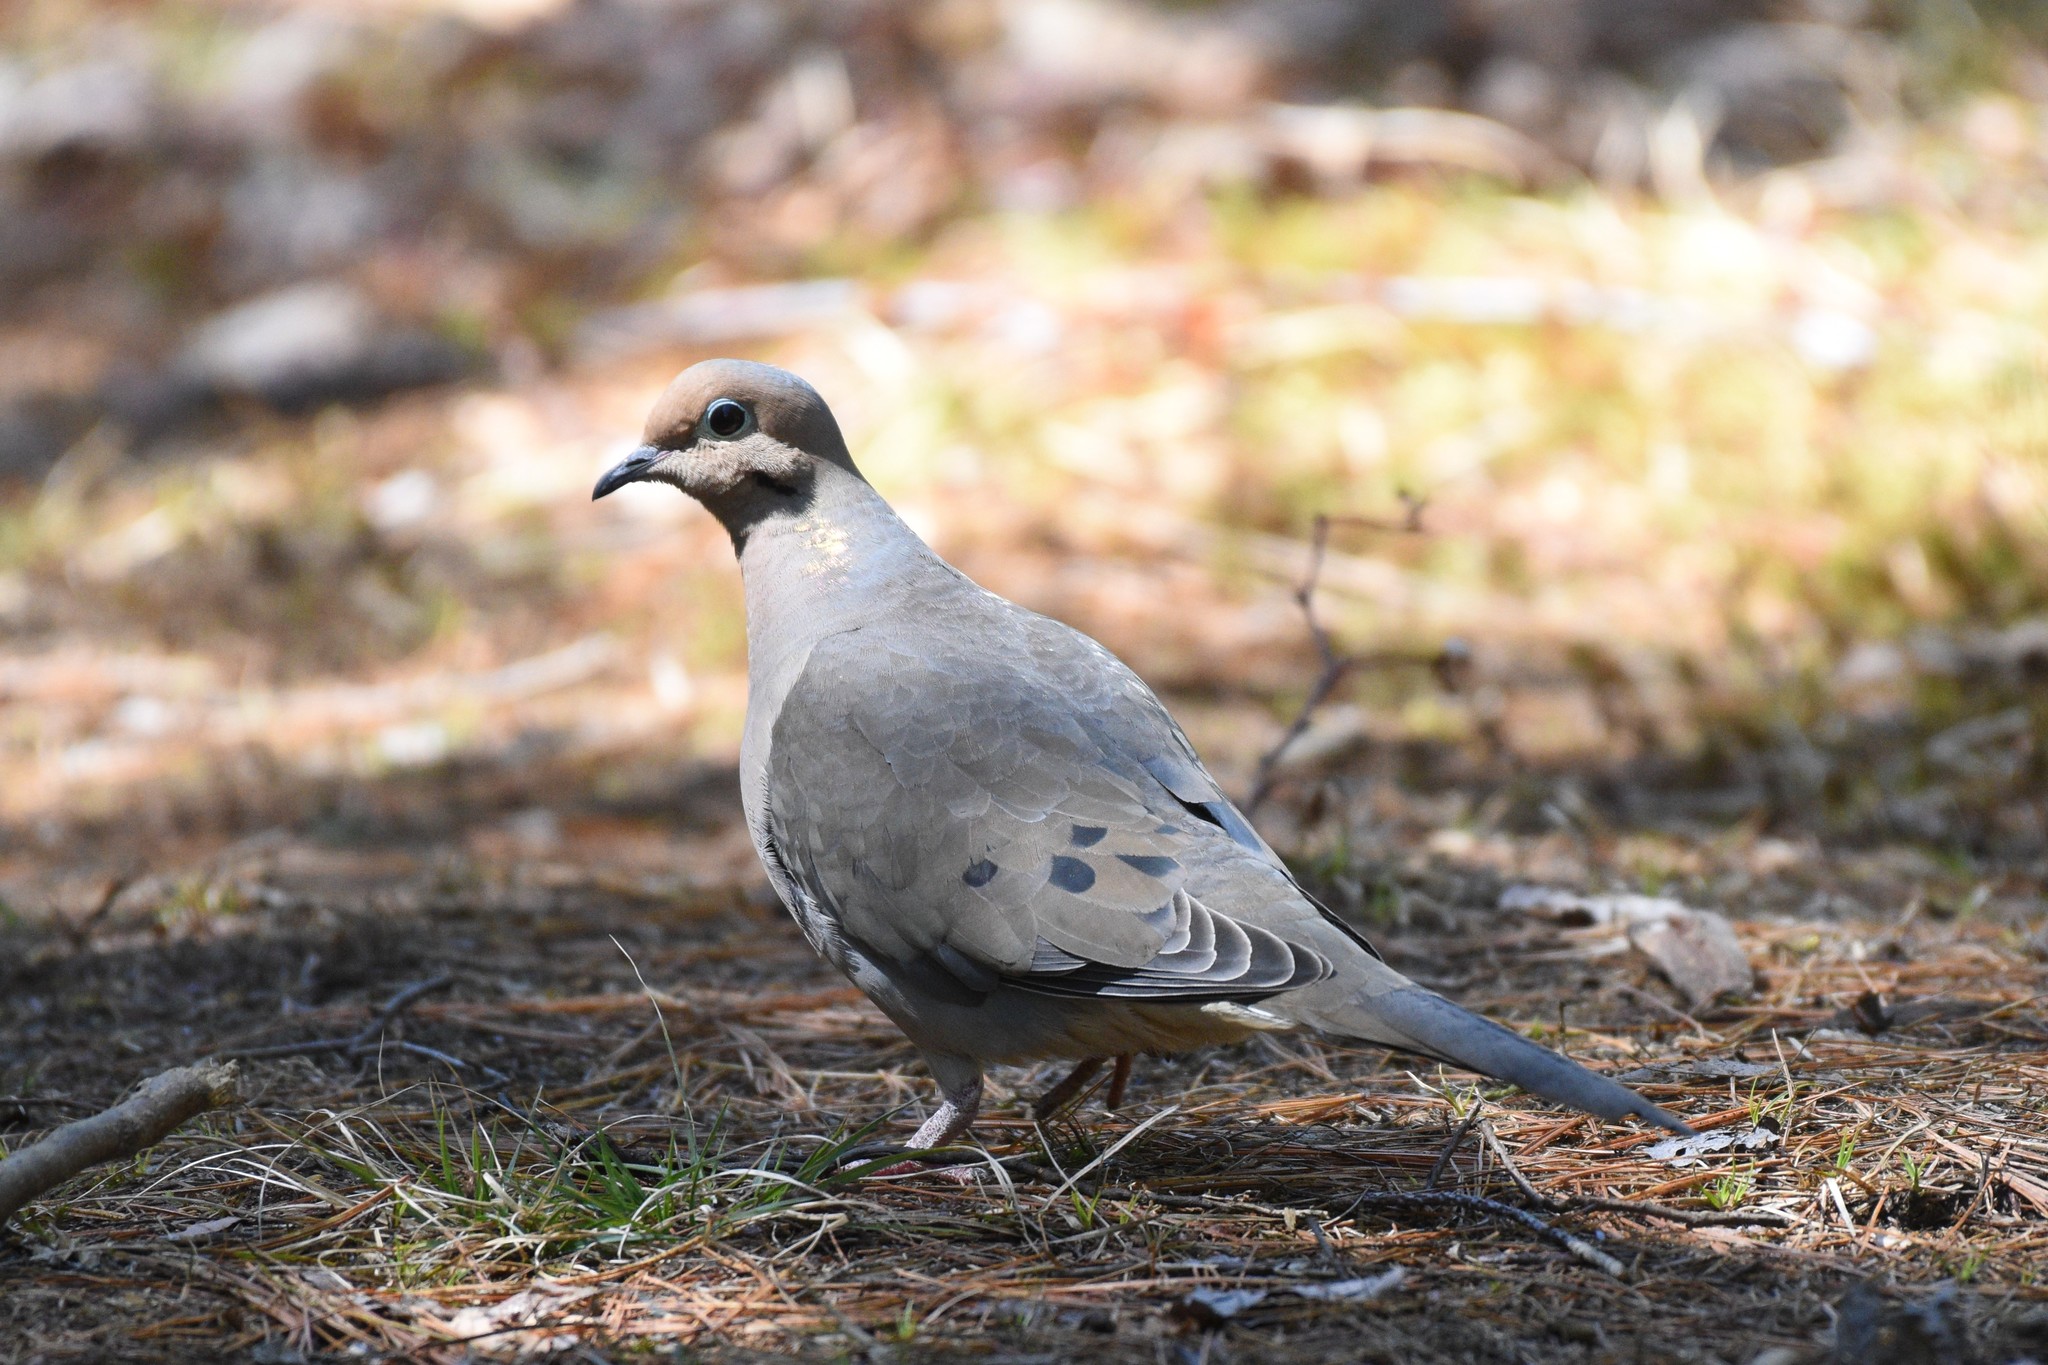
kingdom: Animalia
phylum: Chordata
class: Aves
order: Columbiformes
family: Columbidae
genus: Zenaida
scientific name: Zenaida macroura
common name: Mourning dove
